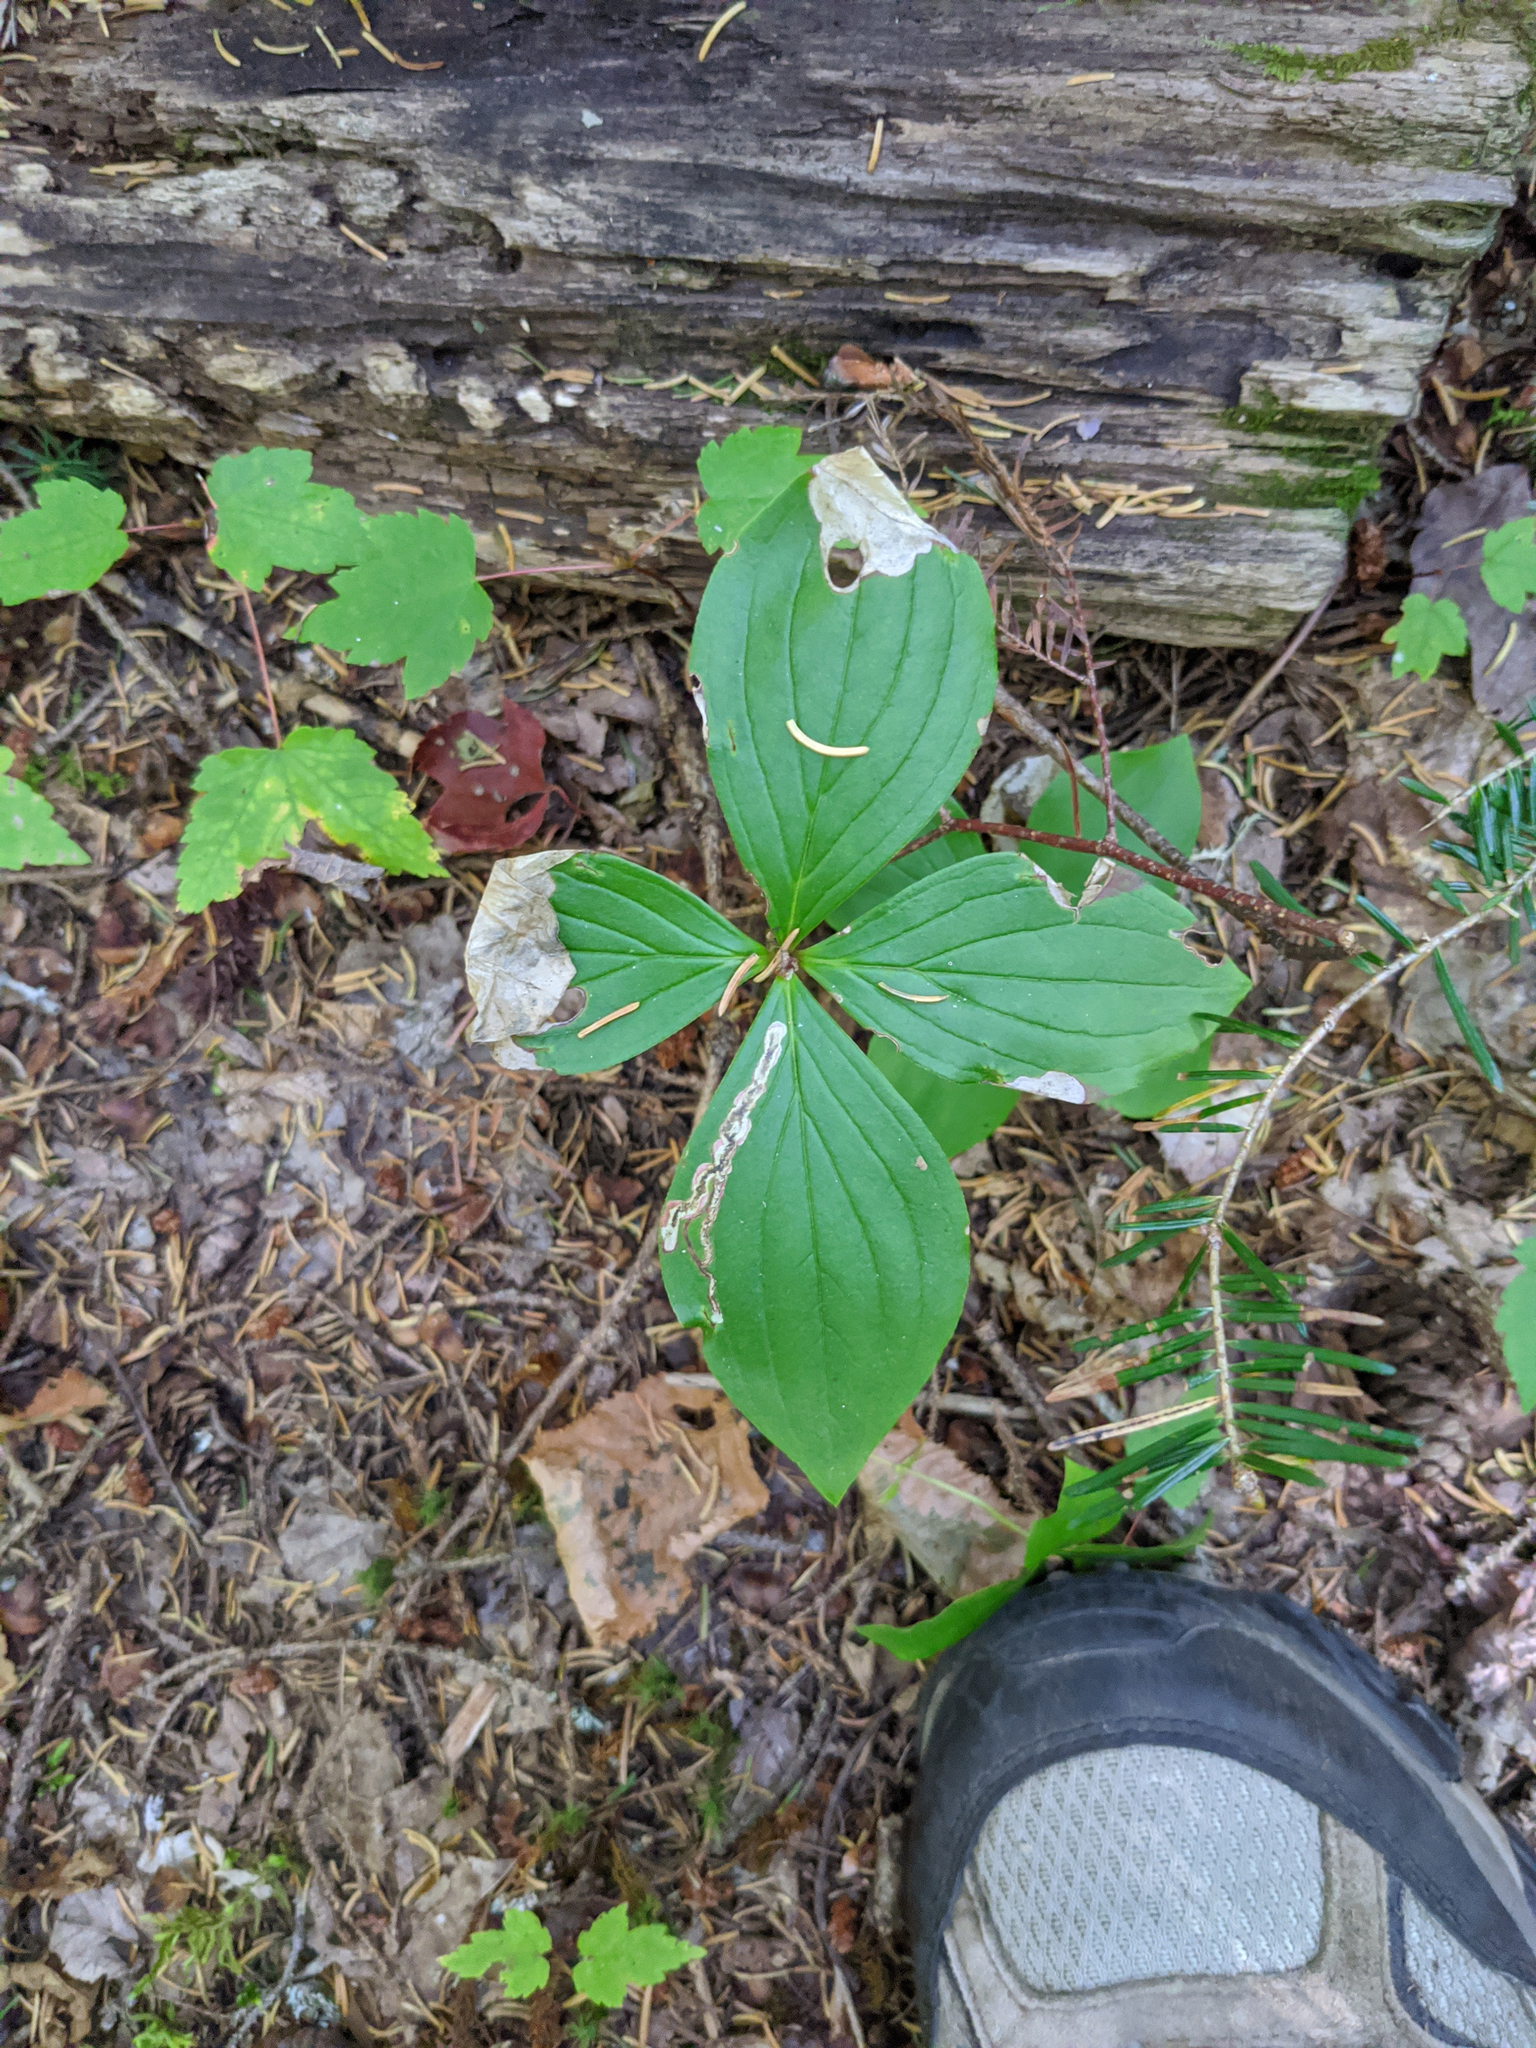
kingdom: Plantae
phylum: Tracheophyta
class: Magnoliopsida
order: Cornales
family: Cornaceae
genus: Cornus
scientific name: Cornus canadensis
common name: Creeping dogwood
